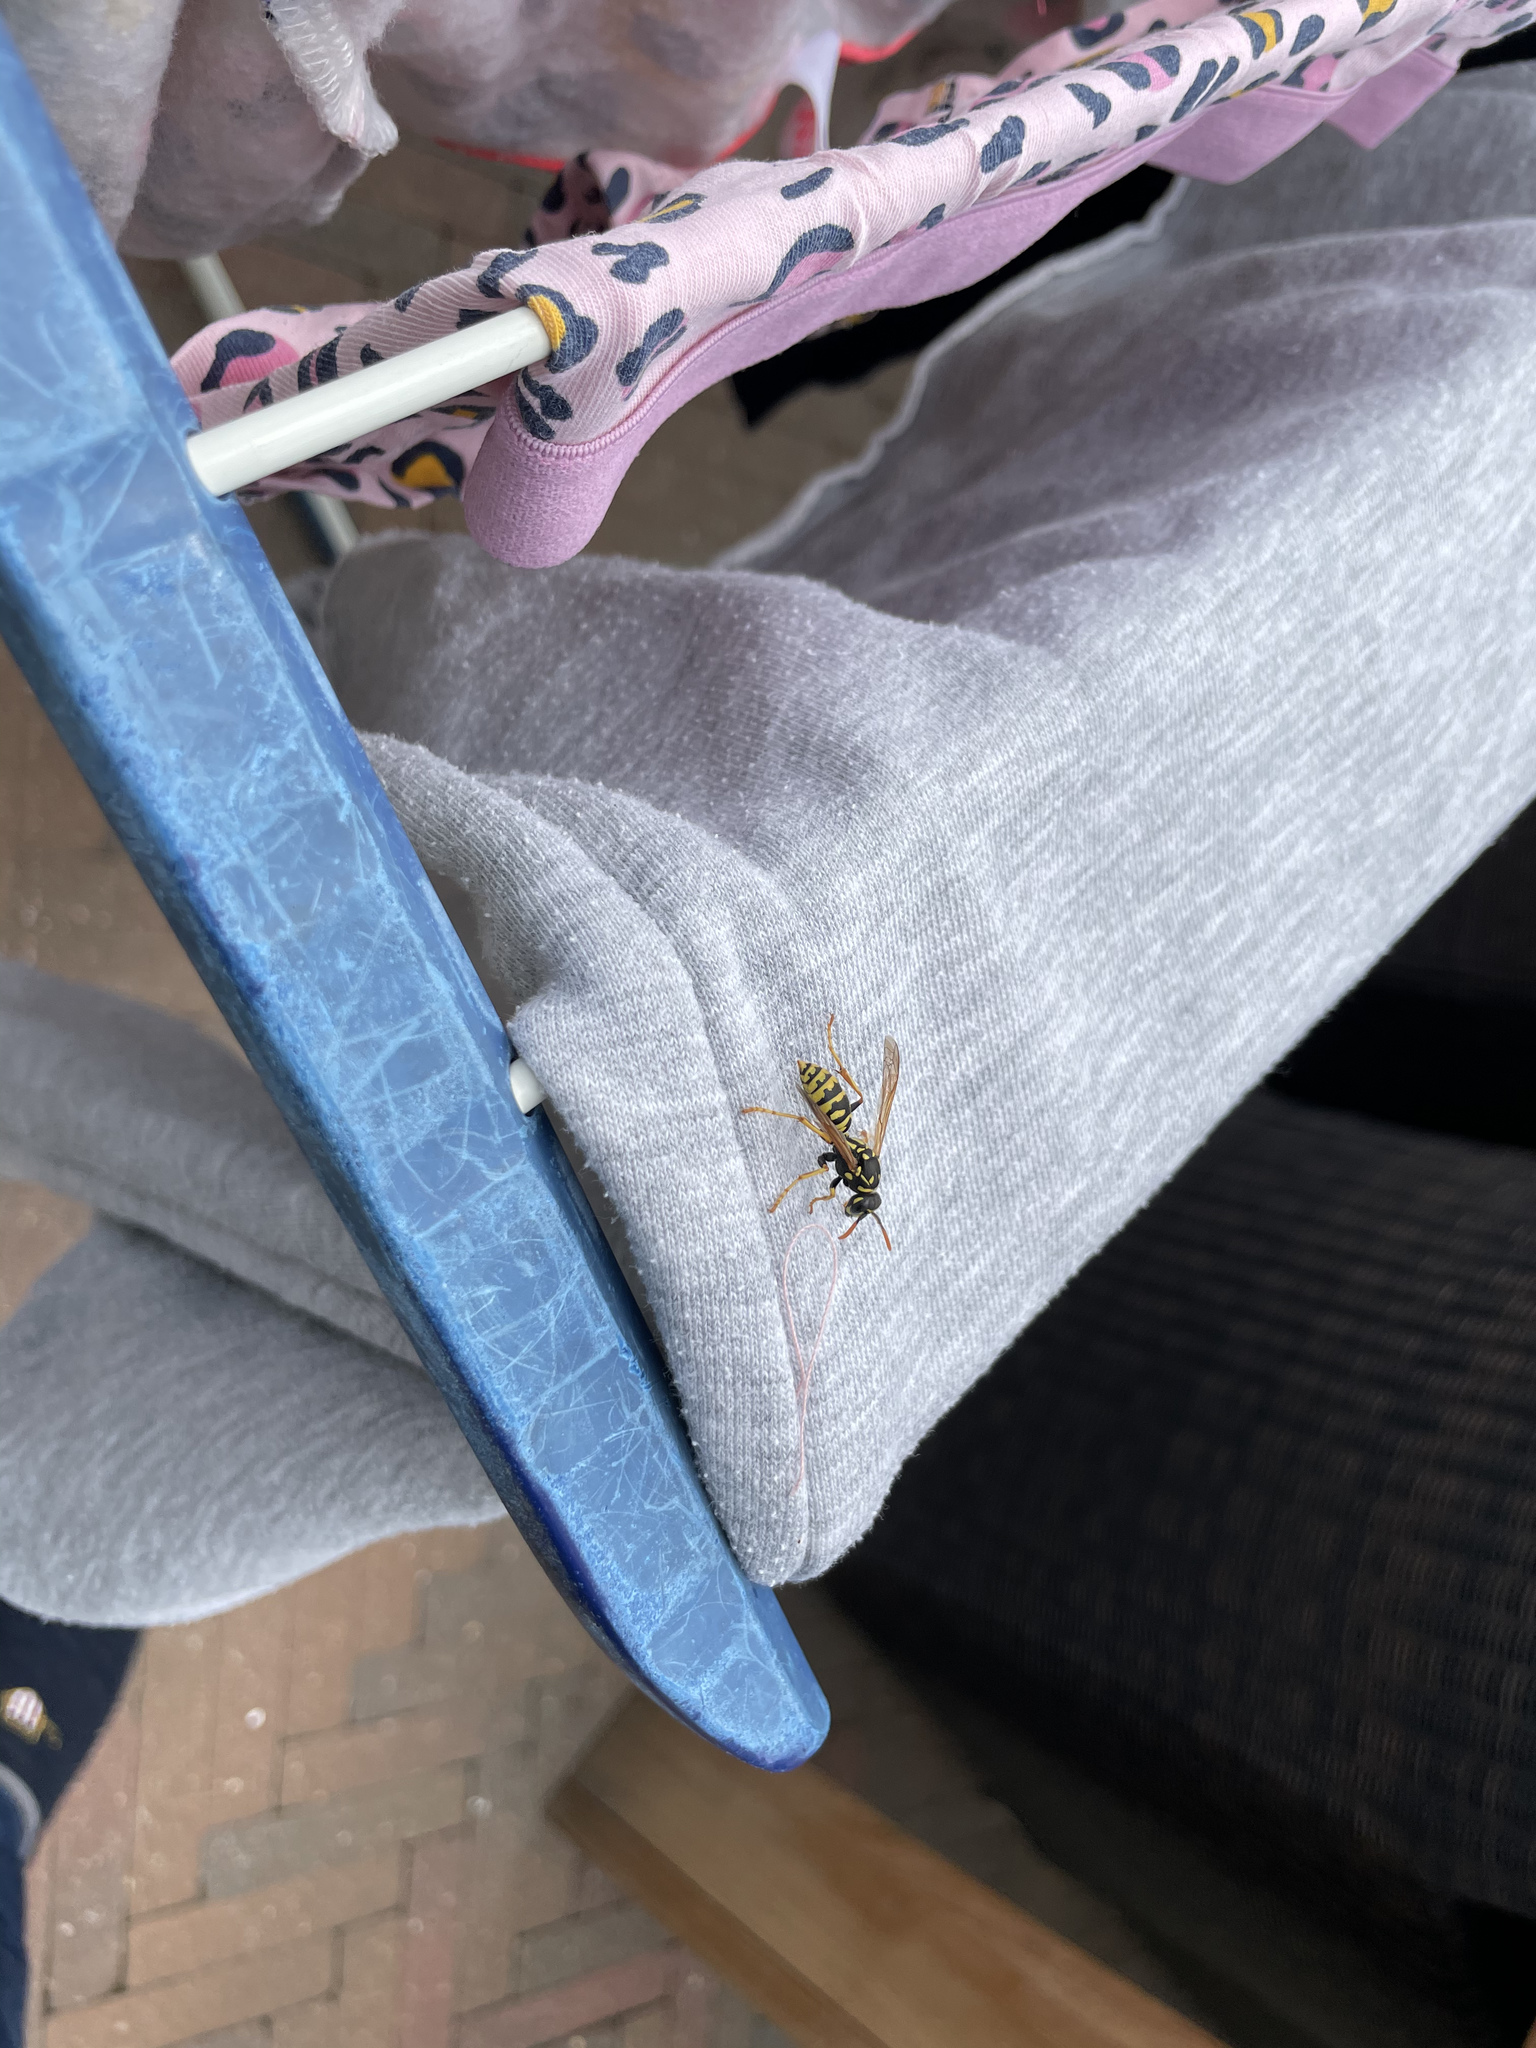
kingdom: Animalia
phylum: Arthropoda
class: Insecta
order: Hymenoptera
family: Eumenidae
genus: Polistes
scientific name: Polistes dominula
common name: Paper wasp
